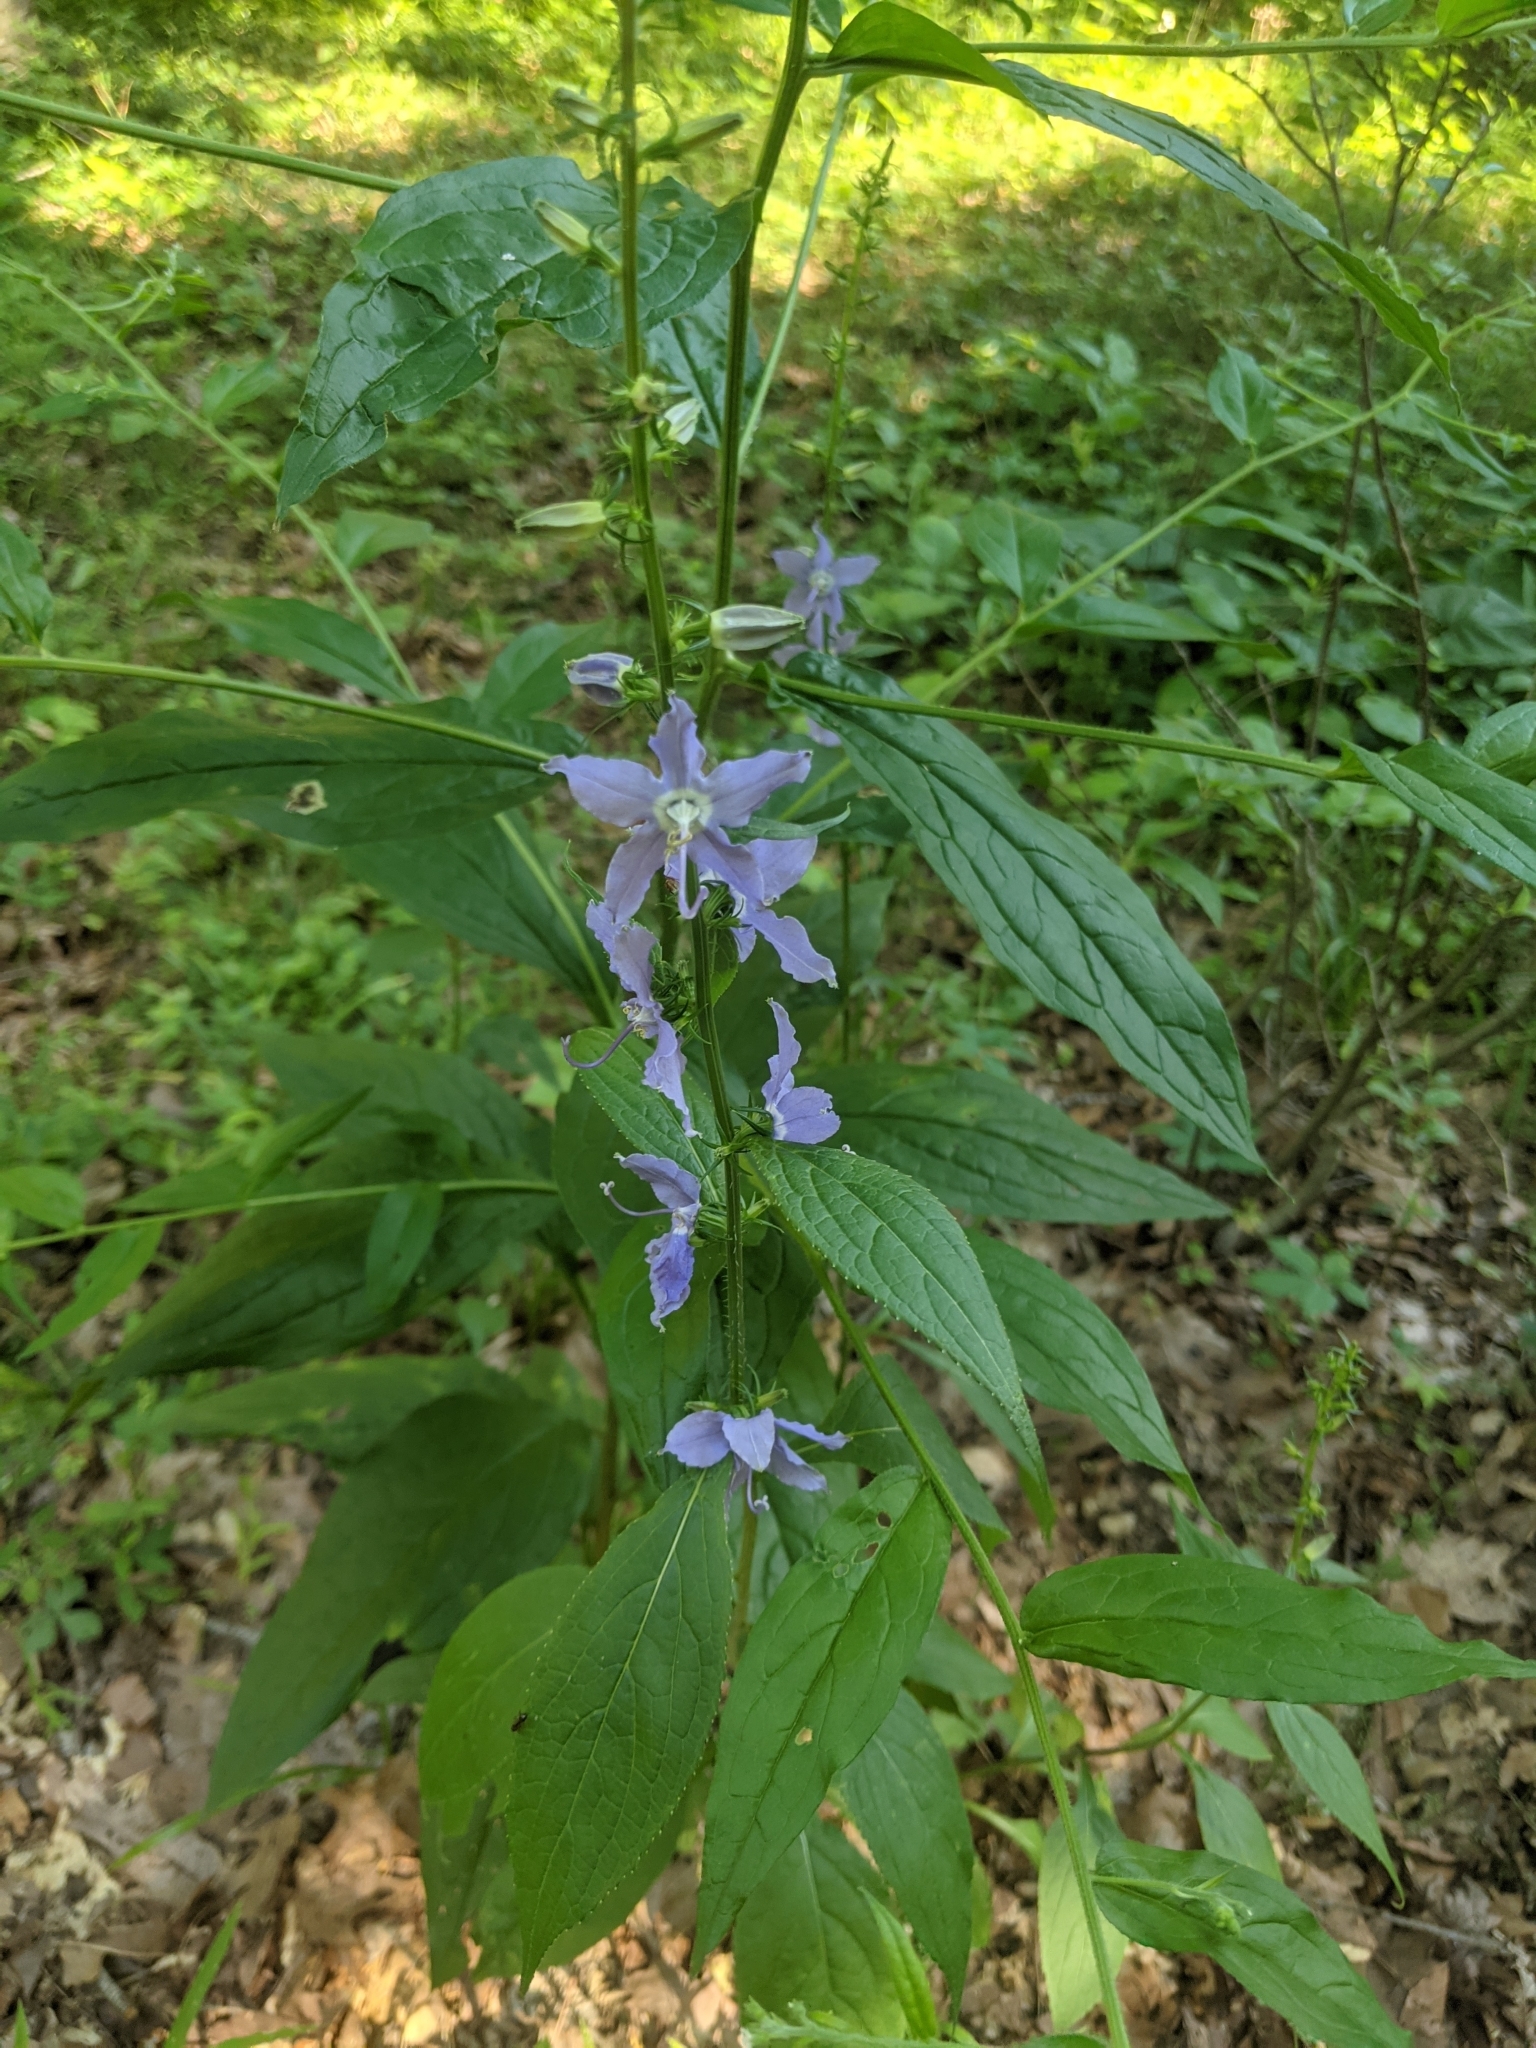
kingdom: Plantae
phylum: Tracheophyta
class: Magnoliopsida
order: Asterales
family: Campanulaceae
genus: Campanulastrum
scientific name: Campanulastrum americanum
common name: American bellflower
